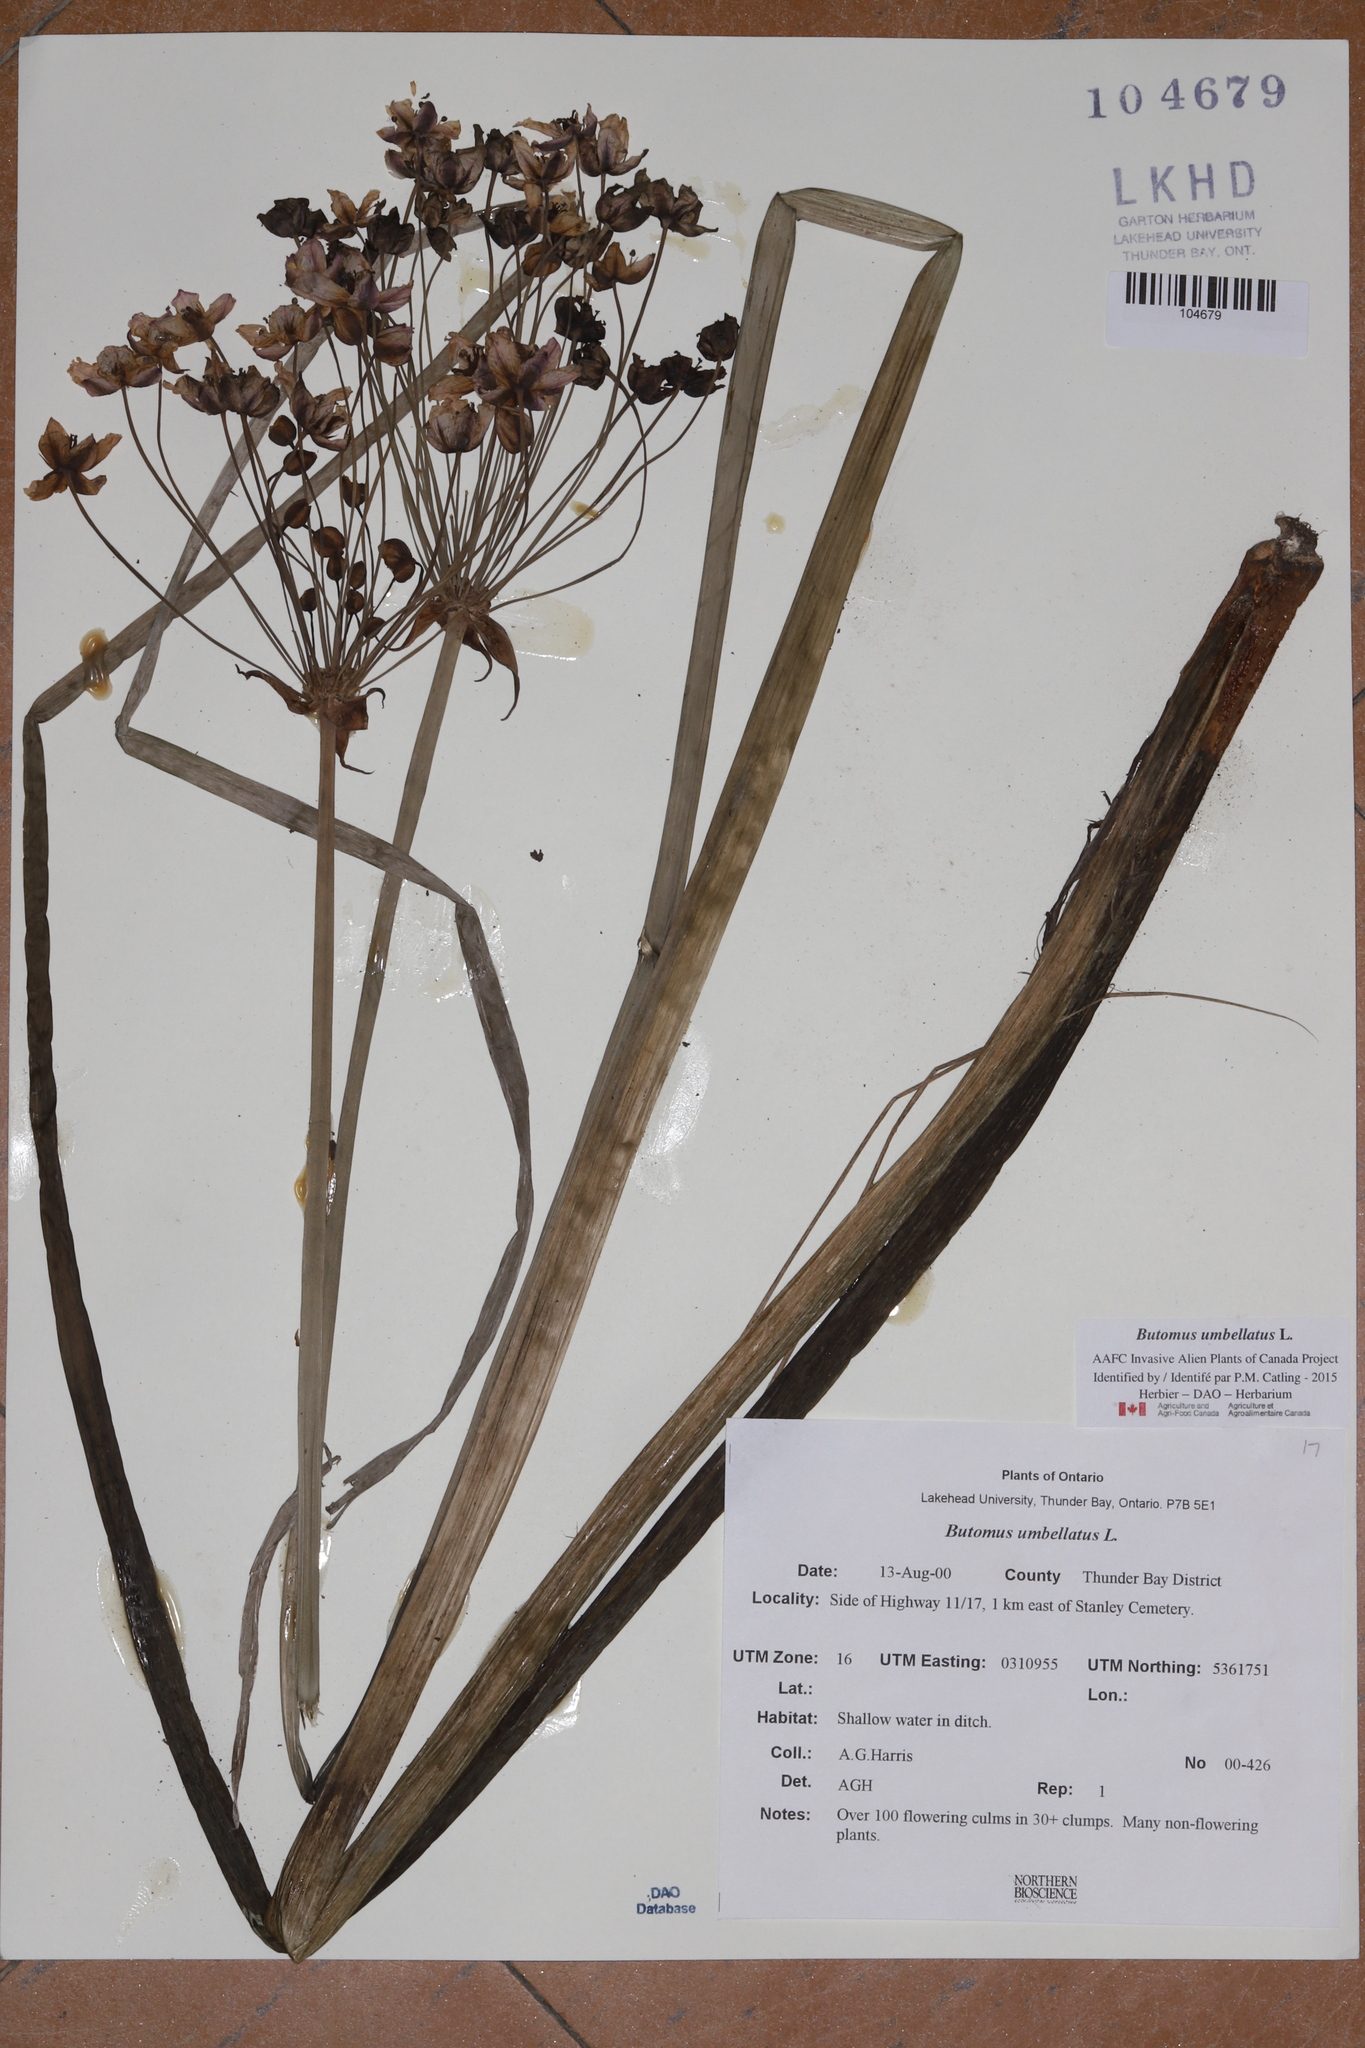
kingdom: Plantae
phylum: Tracheophyta
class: Liliopsida
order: Alismatales
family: Butomaceae
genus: Butomus
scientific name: Butomus umbellatus
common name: Flowering-rush
